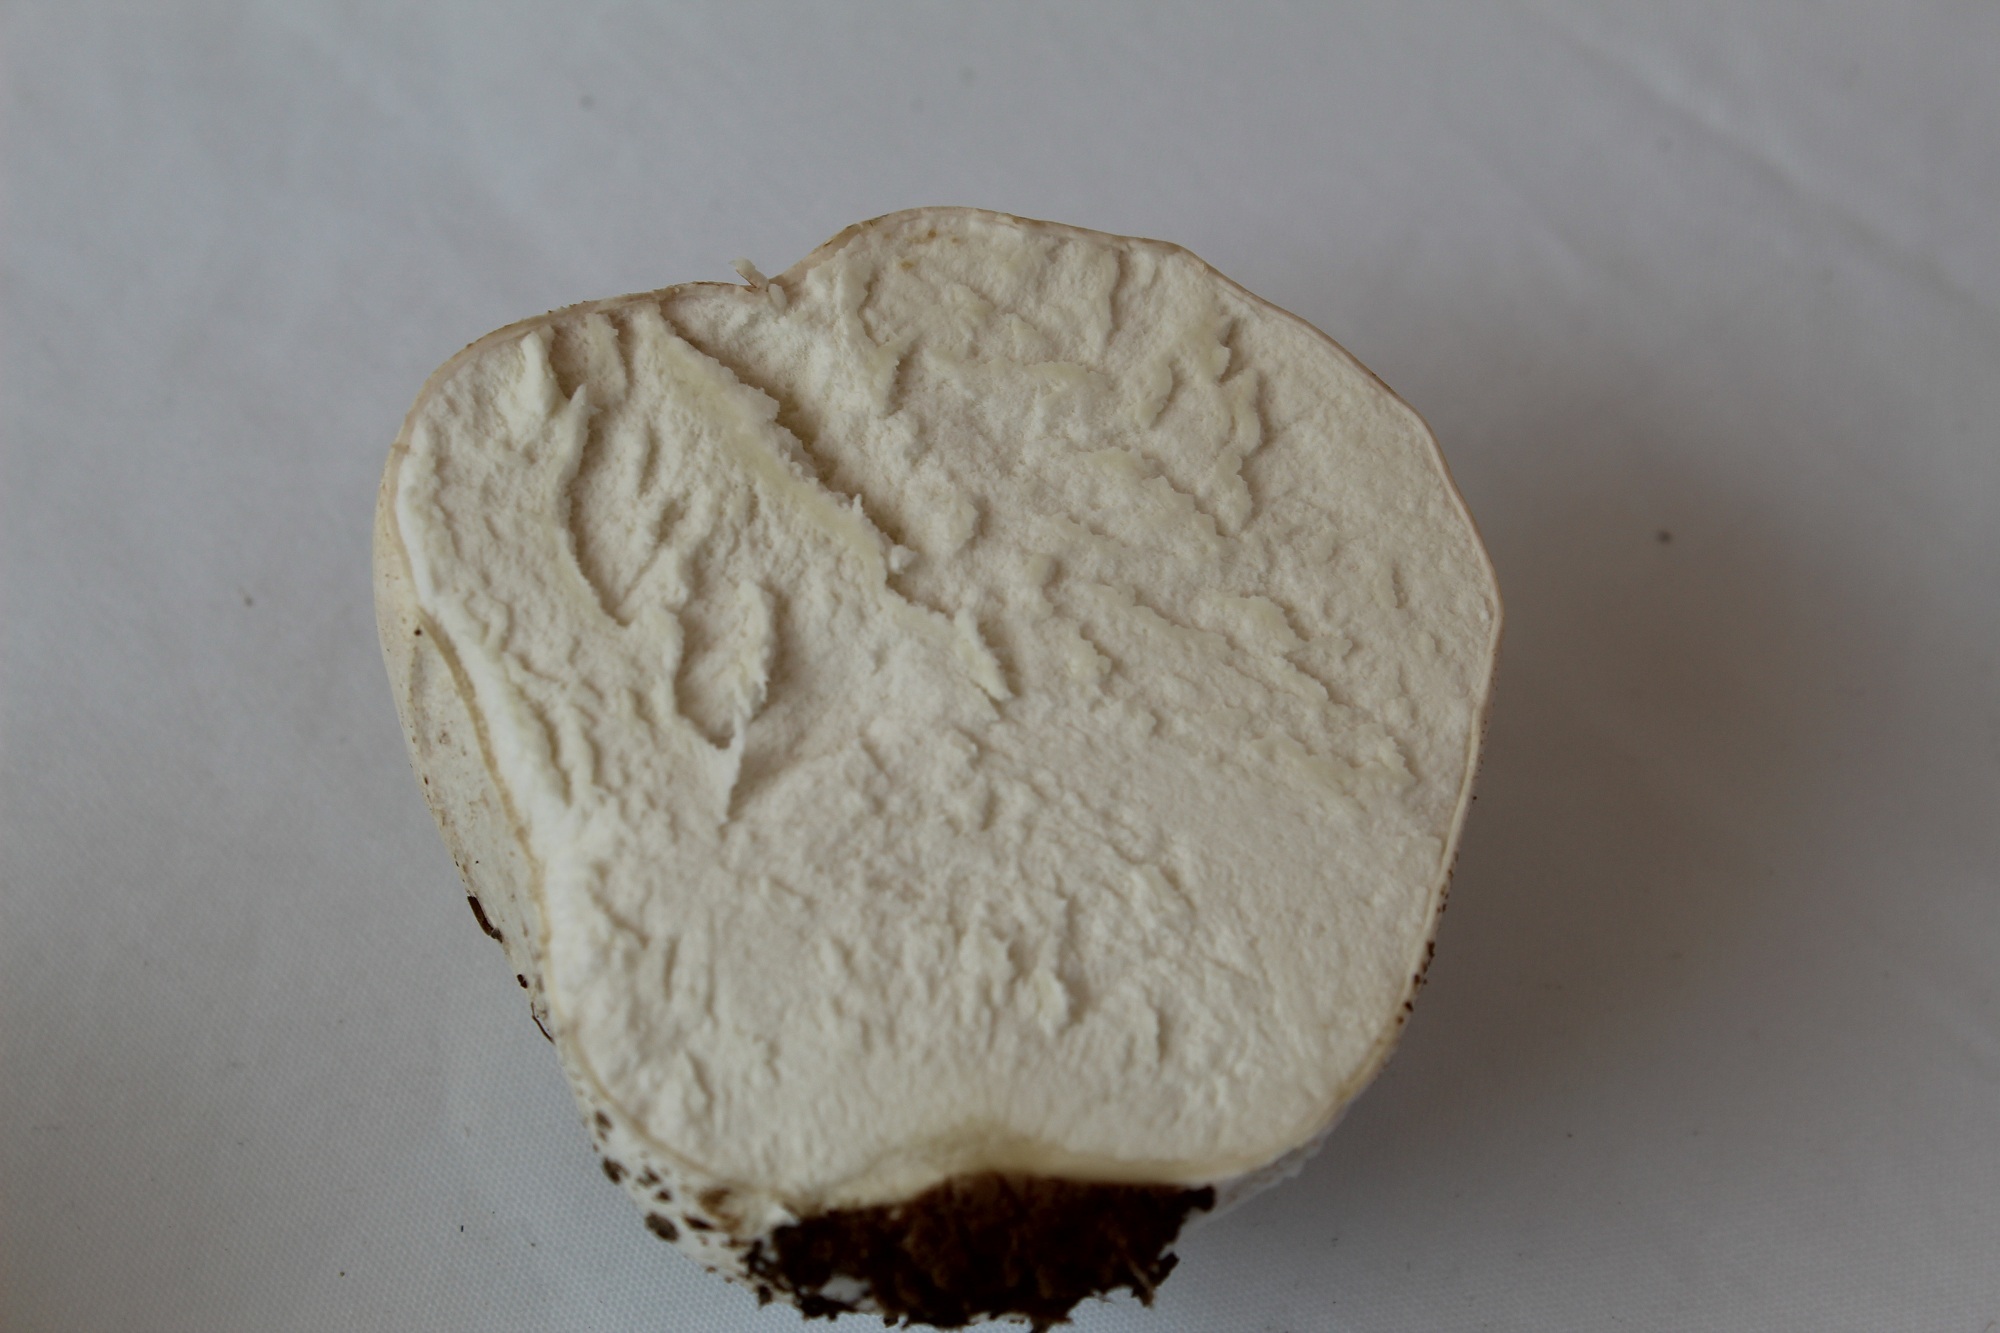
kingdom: Fungi
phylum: Basidiomycota
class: Agaricomycetes
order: Agaricales
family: Lycoperdaceae
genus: Calvatia
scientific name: Calvatia
